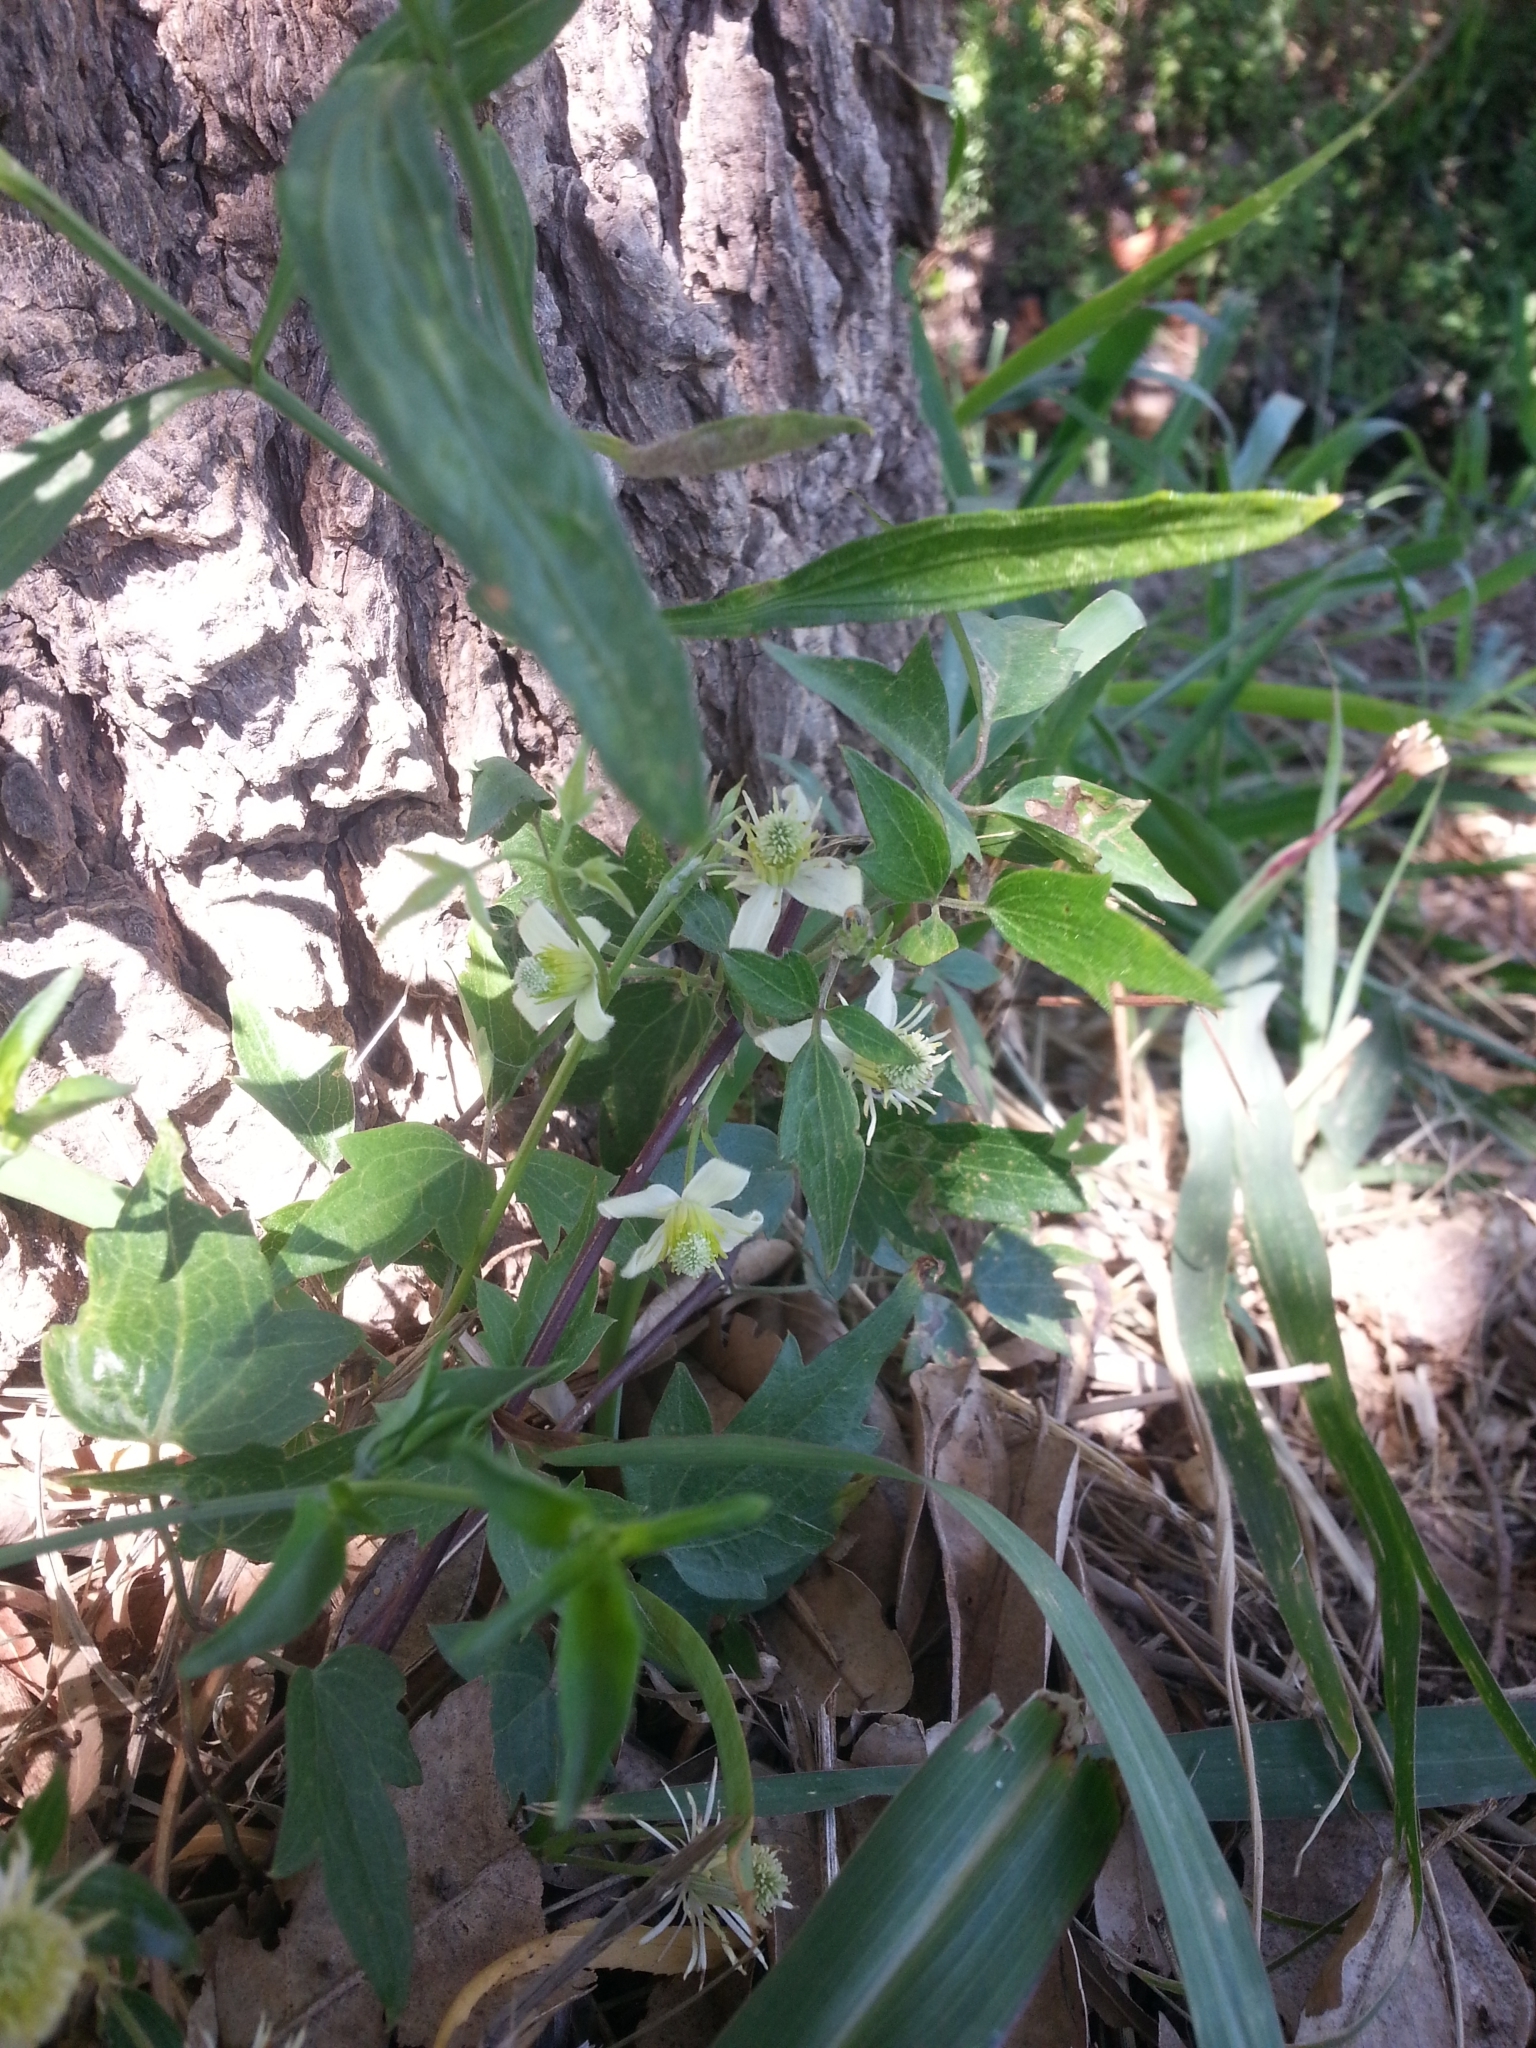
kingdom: Plantae
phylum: Tracheophyta
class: Magnoliopsida
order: Ranunculales
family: Ranunculaceae
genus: Clematis
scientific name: Clematis montevidensis
